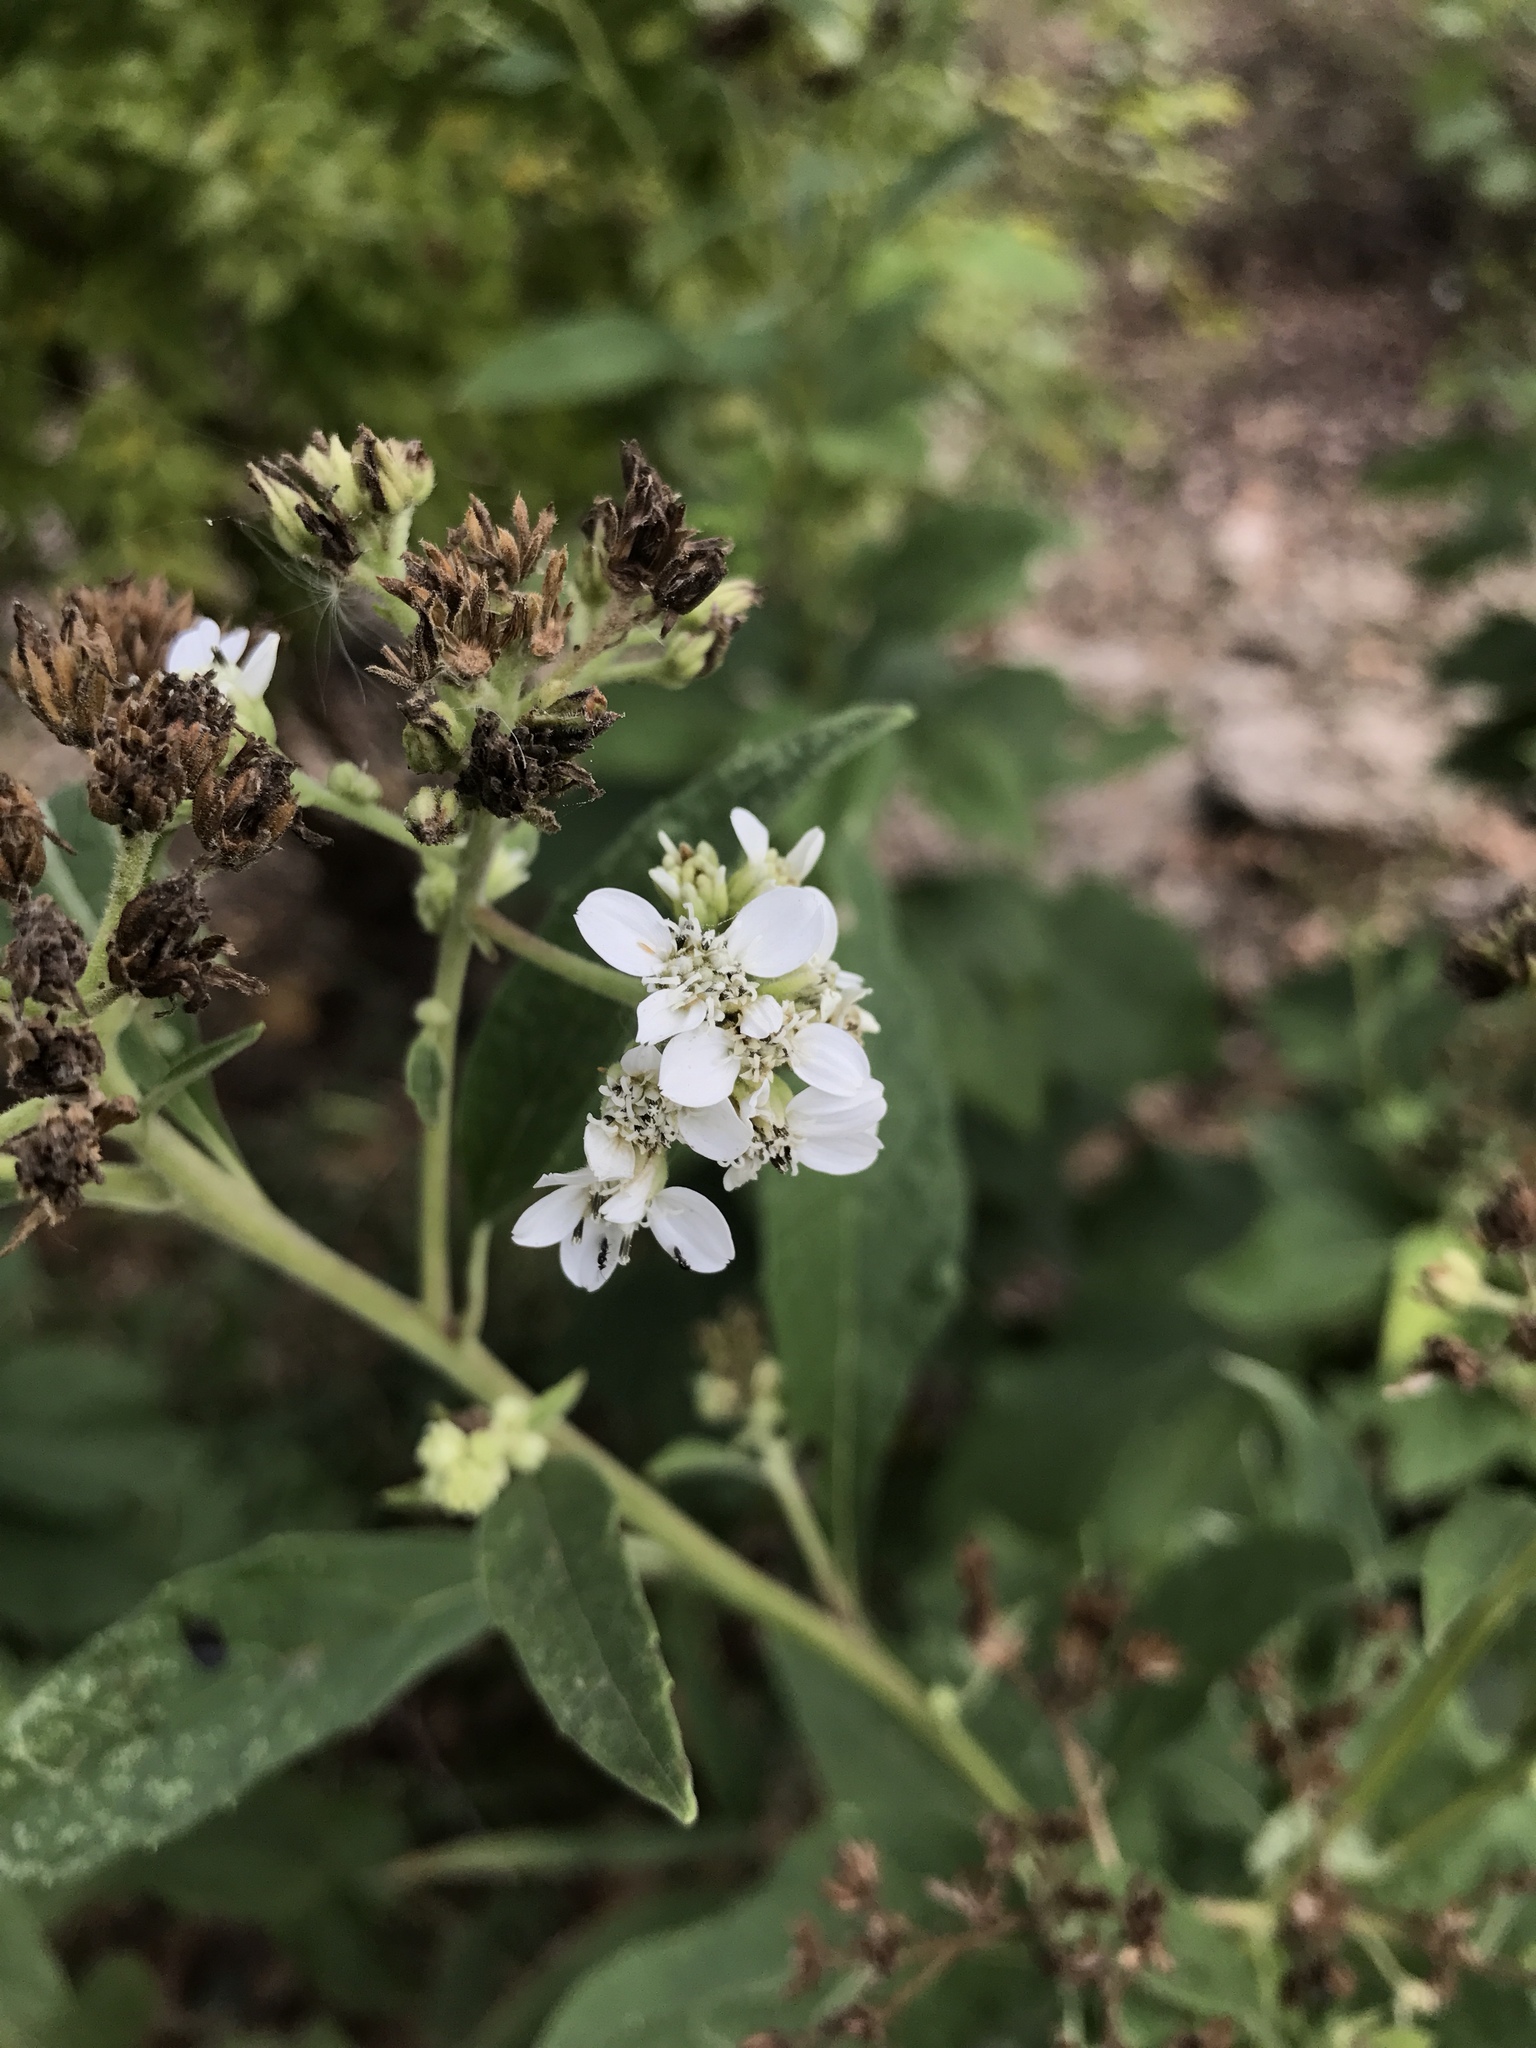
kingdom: Plantae
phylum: Tracheophyta
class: Magnoliopsida
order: Asterales
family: Asteraceae
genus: Verbesina
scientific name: Verbesina virginica
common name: Frostweed
